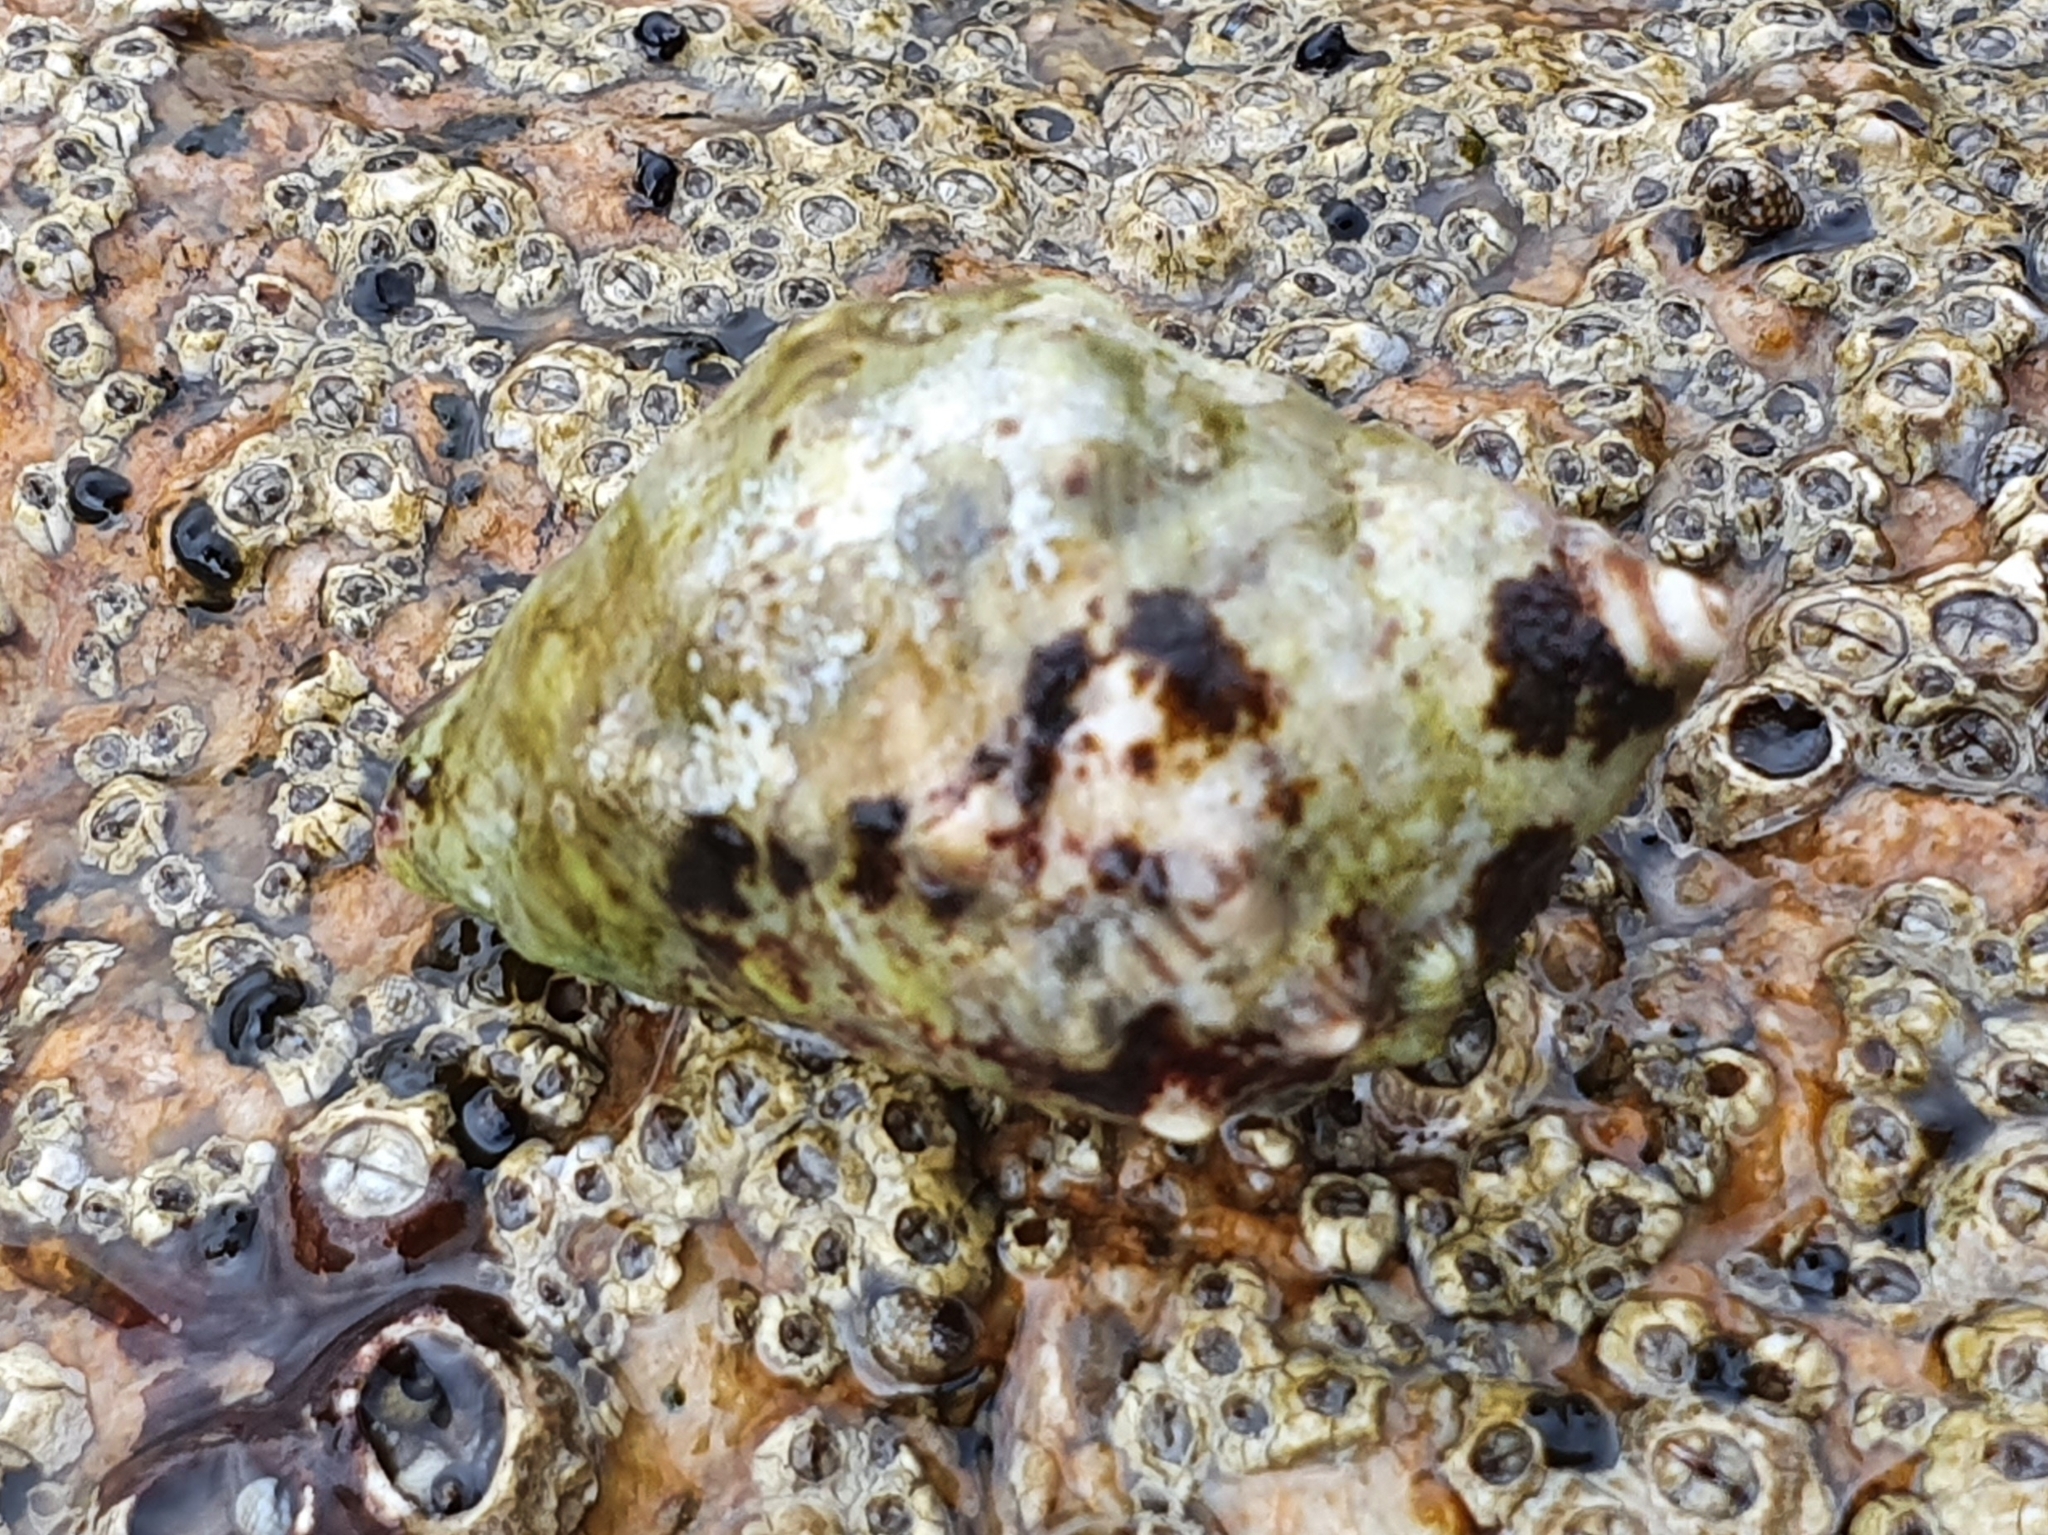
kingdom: Animalia
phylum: Mollusca
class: Gastropoda
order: Neogastropoda
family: Muricidae
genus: Stramonita
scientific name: Stramonita haemastoma
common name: Florida dog winkle
